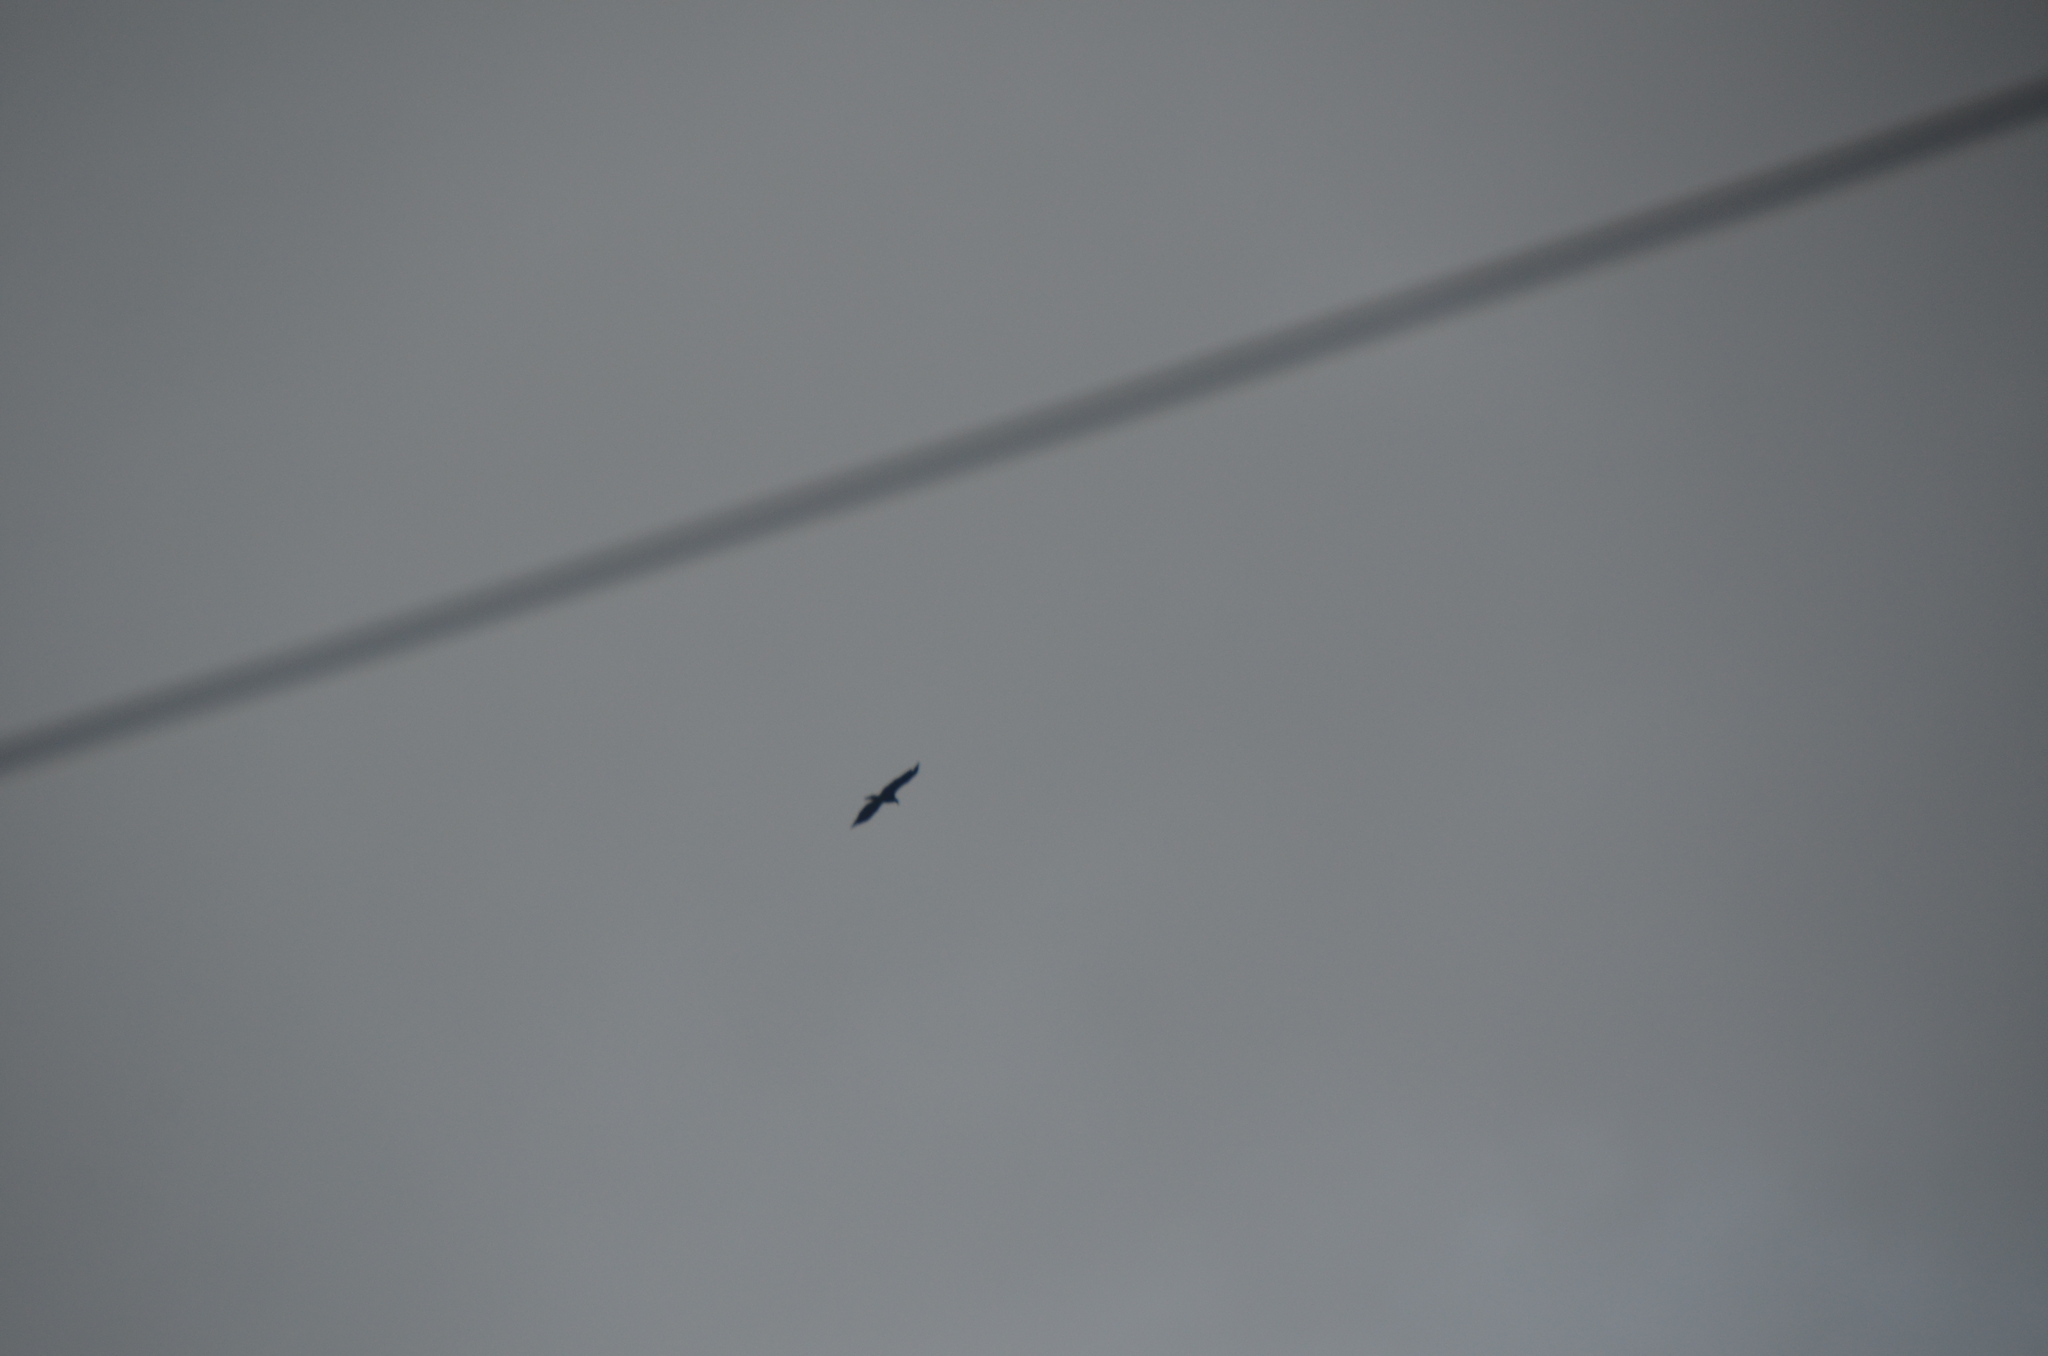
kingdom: Animalia
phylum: Chordata
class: Aves
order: Accipitriformes
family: Accipitridae
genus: Haliaeetus
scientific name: Haliaeetus leucocephalus
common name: Bald eagle
